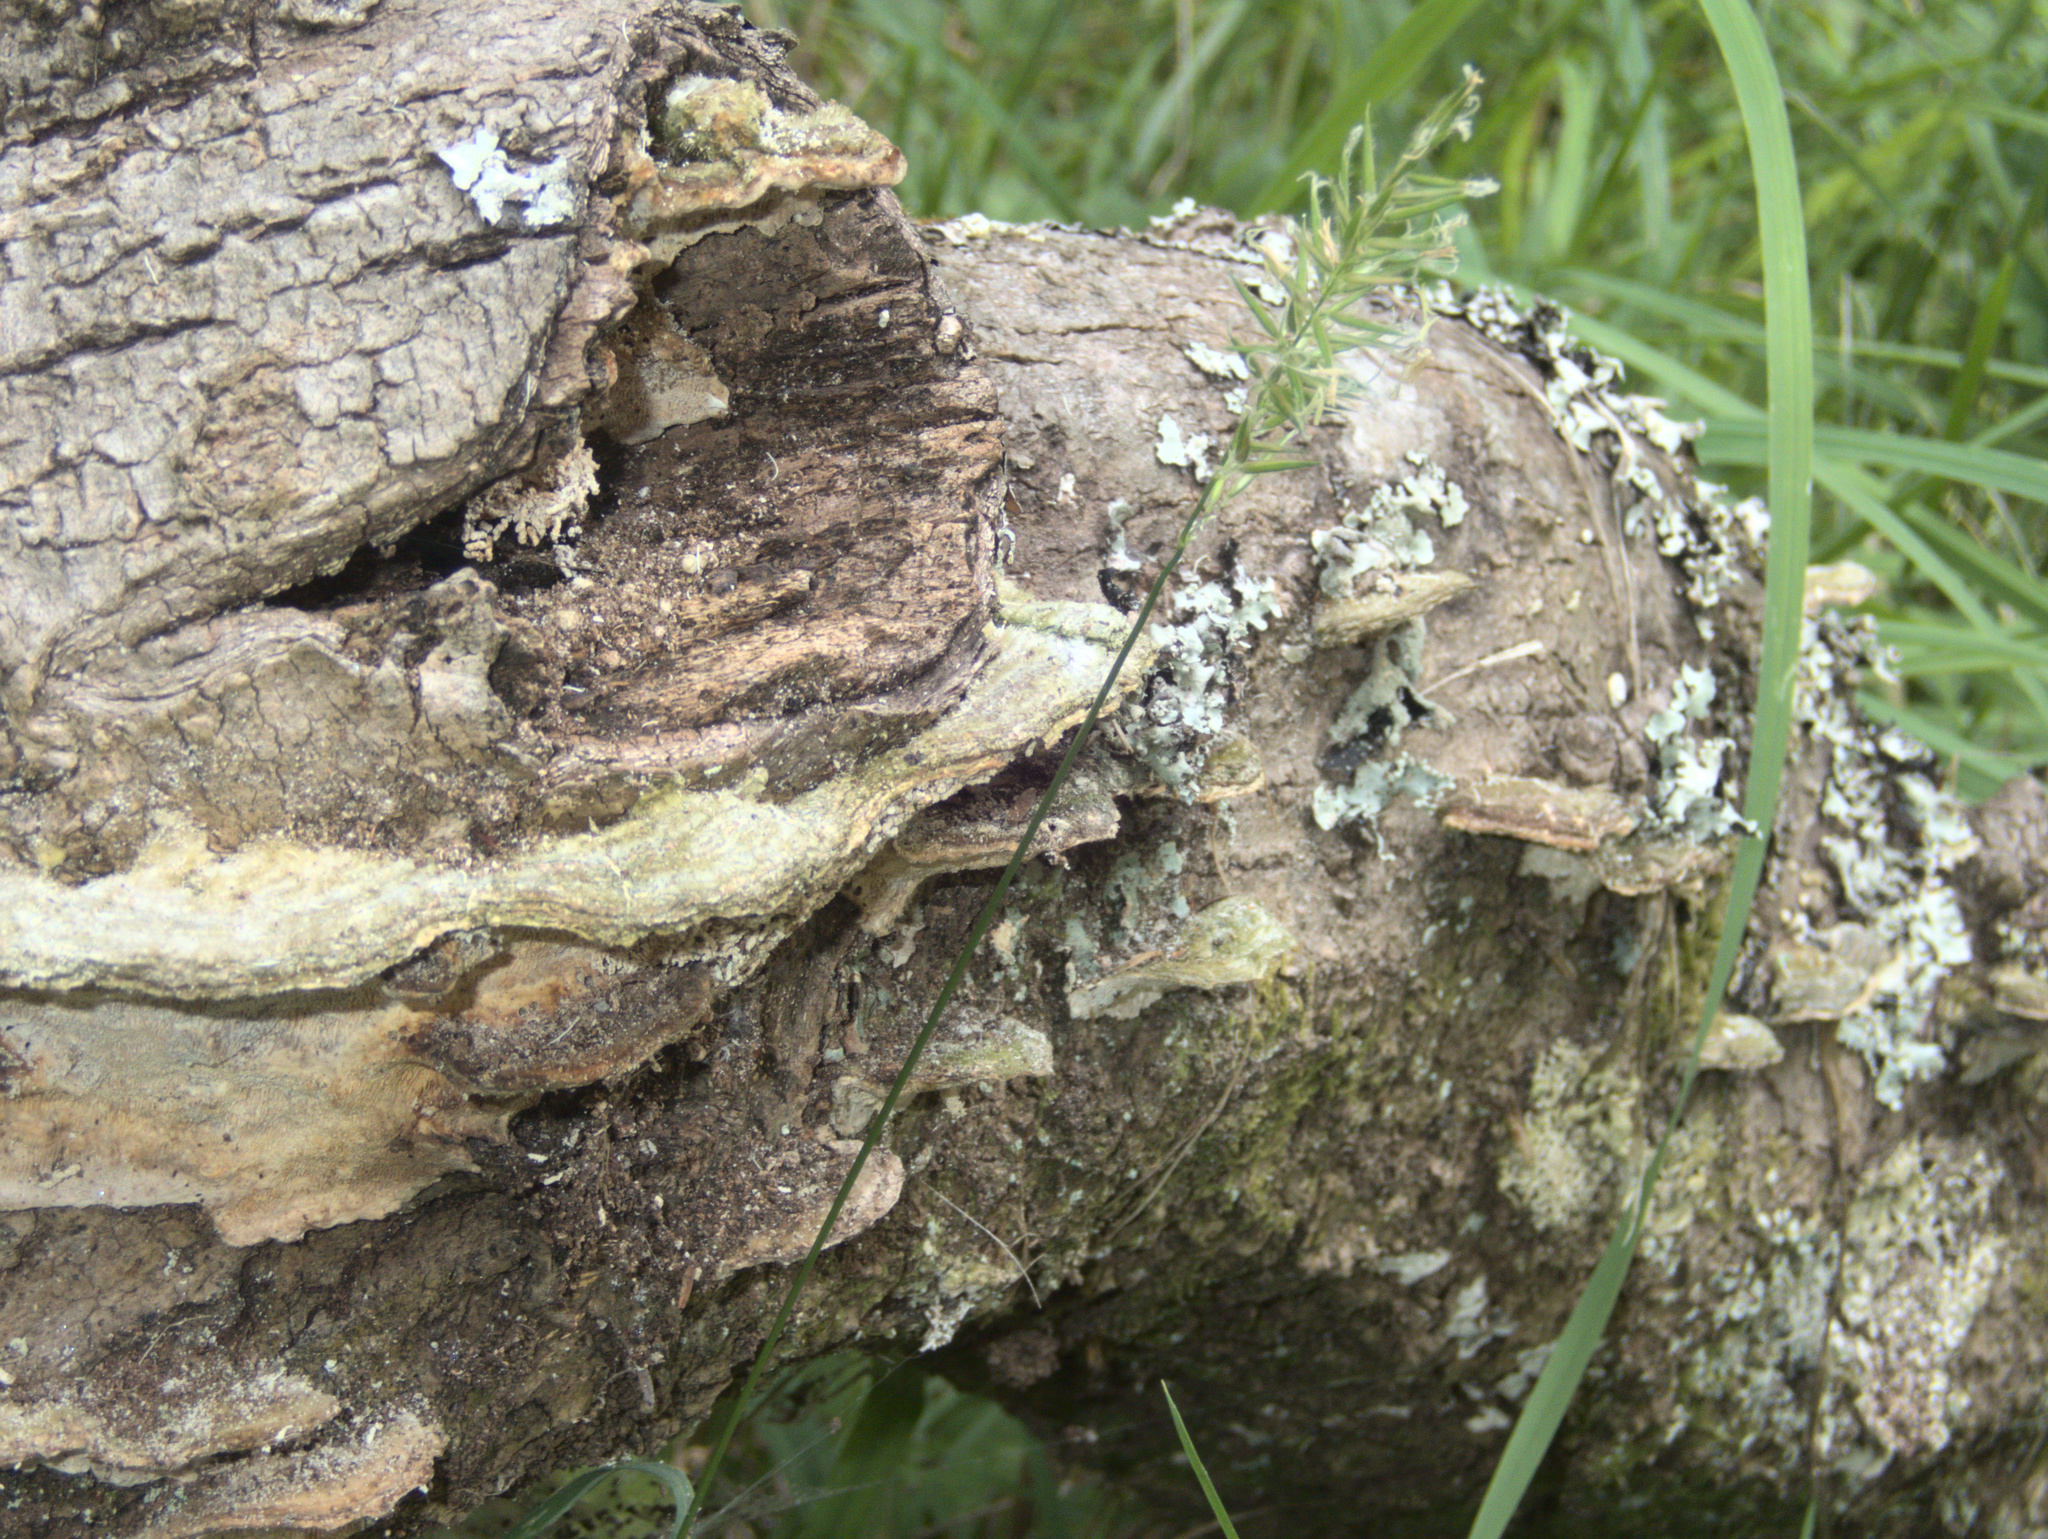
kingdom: Fungi
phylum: Basidiomycota
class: Agaricomycetes
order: Polyporales
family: Polyporaceae
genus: Trametes
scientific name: Trametes hirsuta
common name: Hairy bracket
